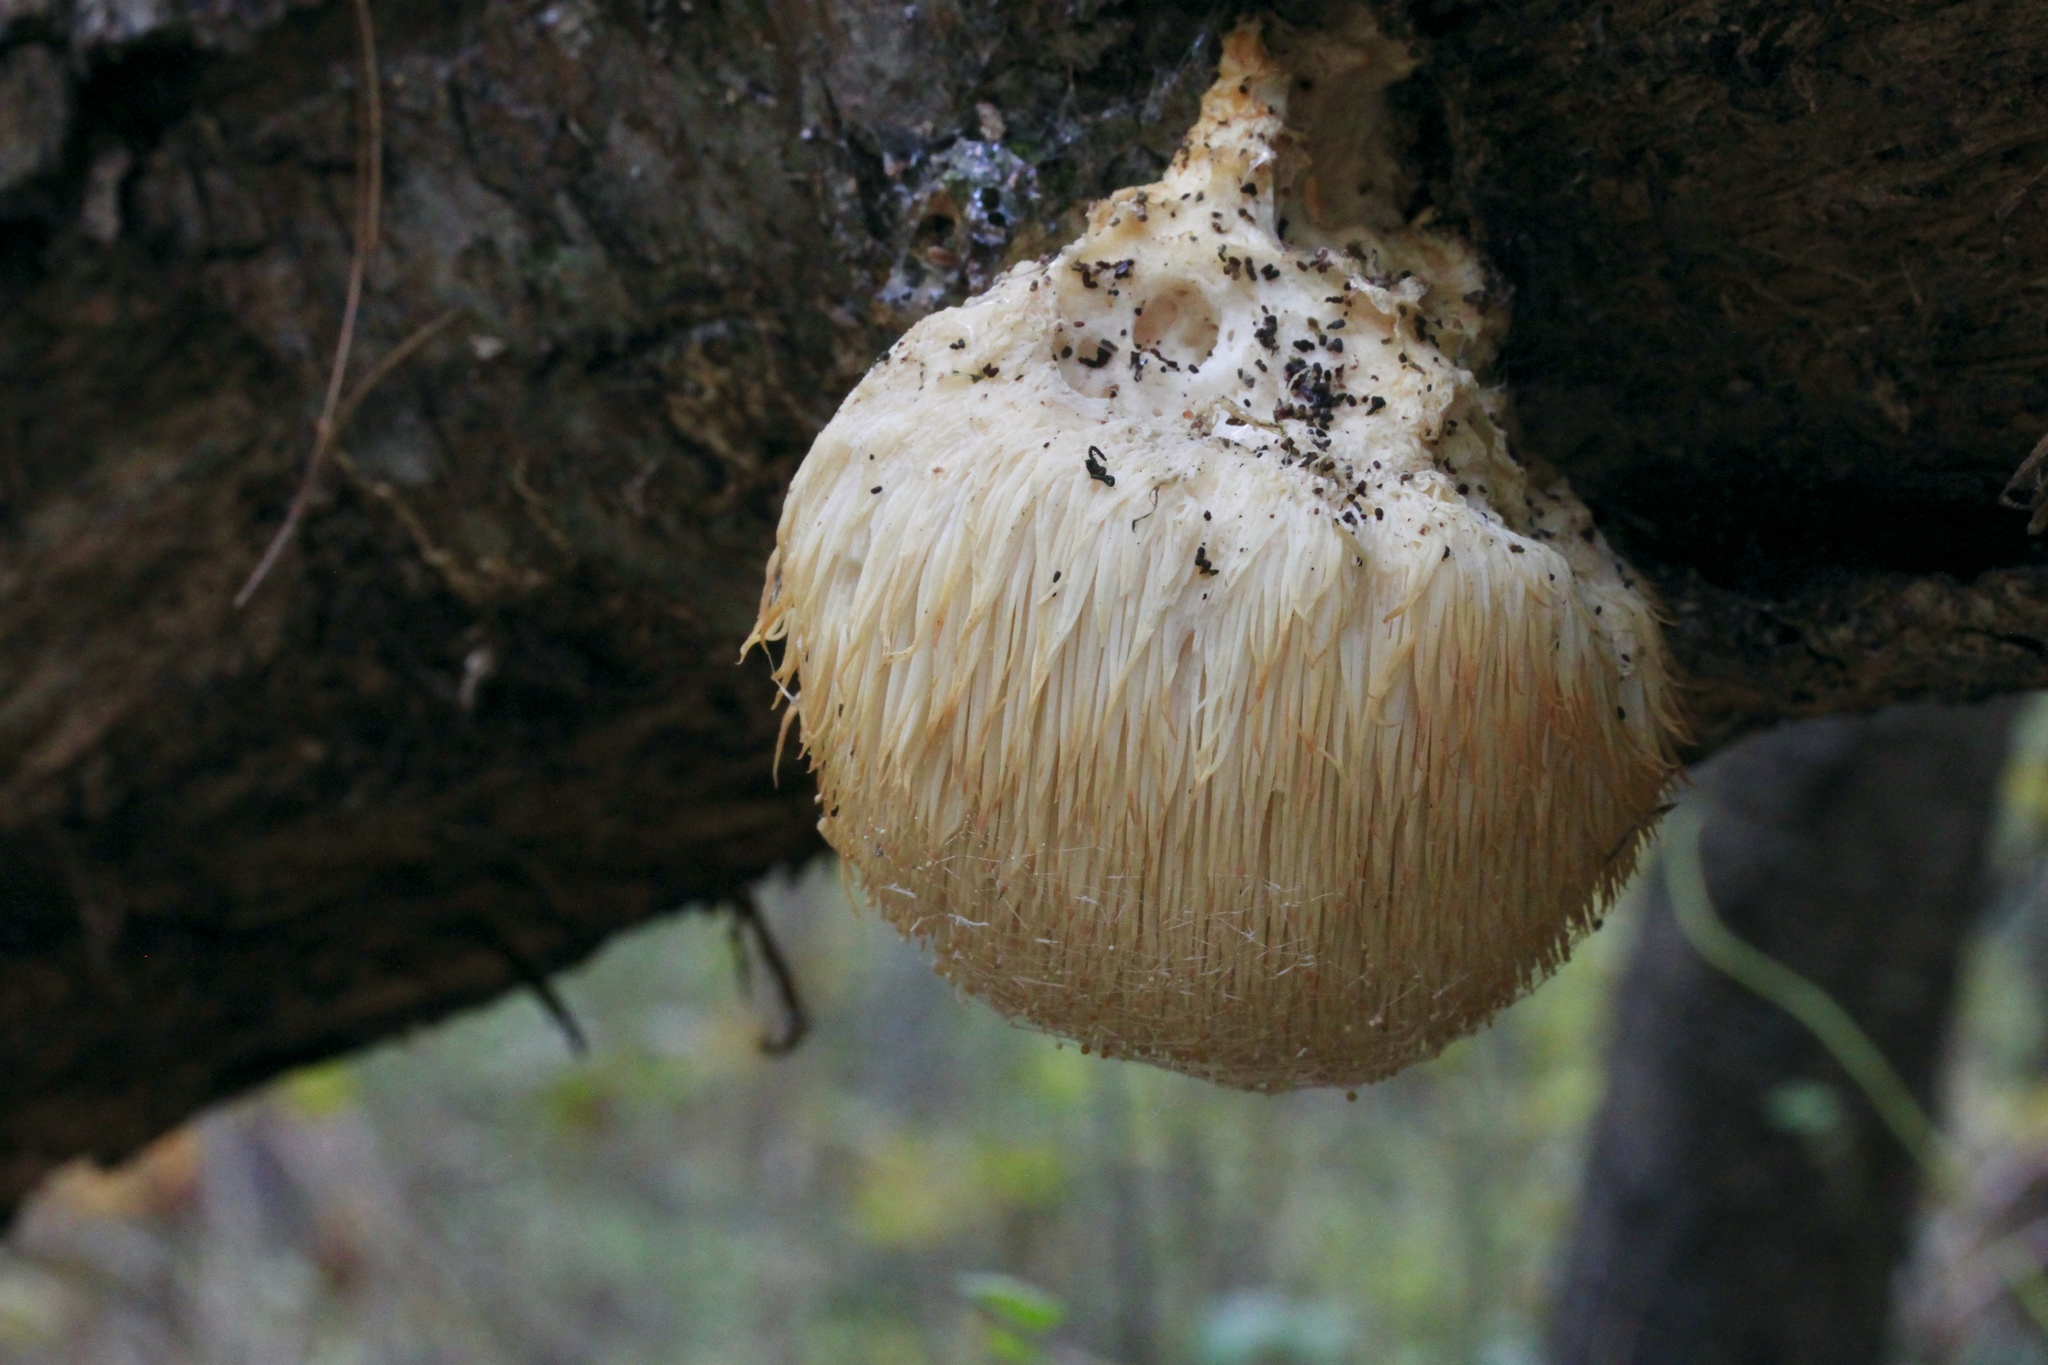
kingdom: Fungi
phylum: Basidiomycota
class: Agaricomycetes
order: Russulales
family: Hericiaceae
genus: Hericium
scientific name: Hericium erinaceus
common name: Bearded tooth
